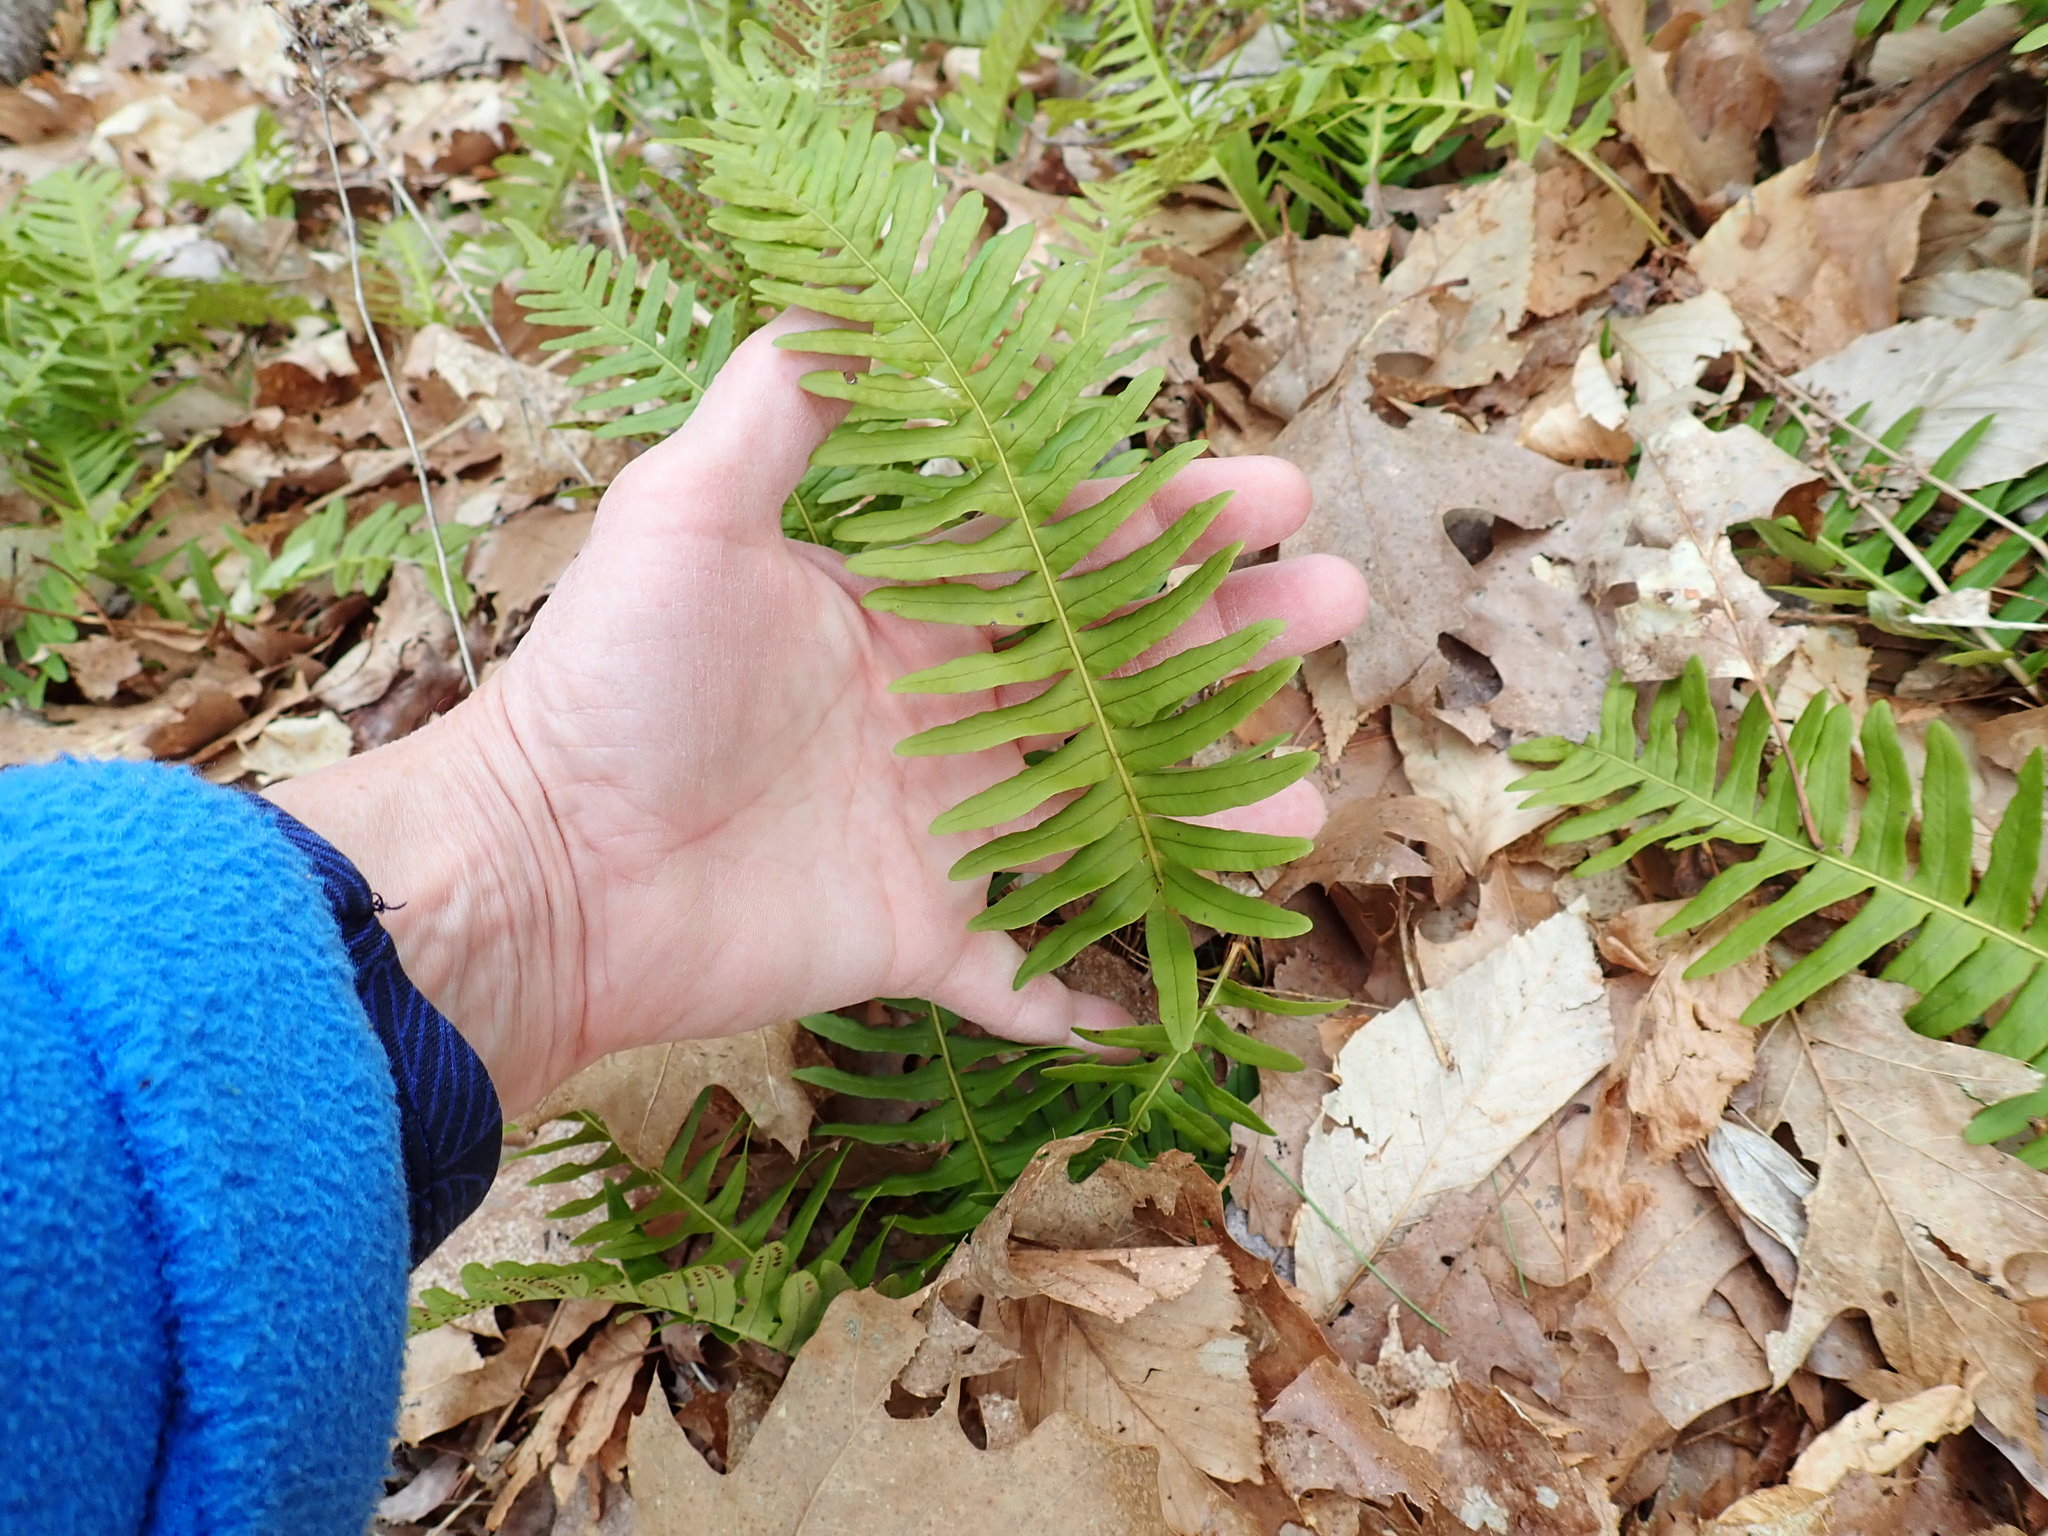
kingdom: Plantae
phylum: Tracheophyta
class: Polypodiopsida
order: Polypodiales
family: Polypodiaceae
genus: Polypodium
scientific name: Polypodium
